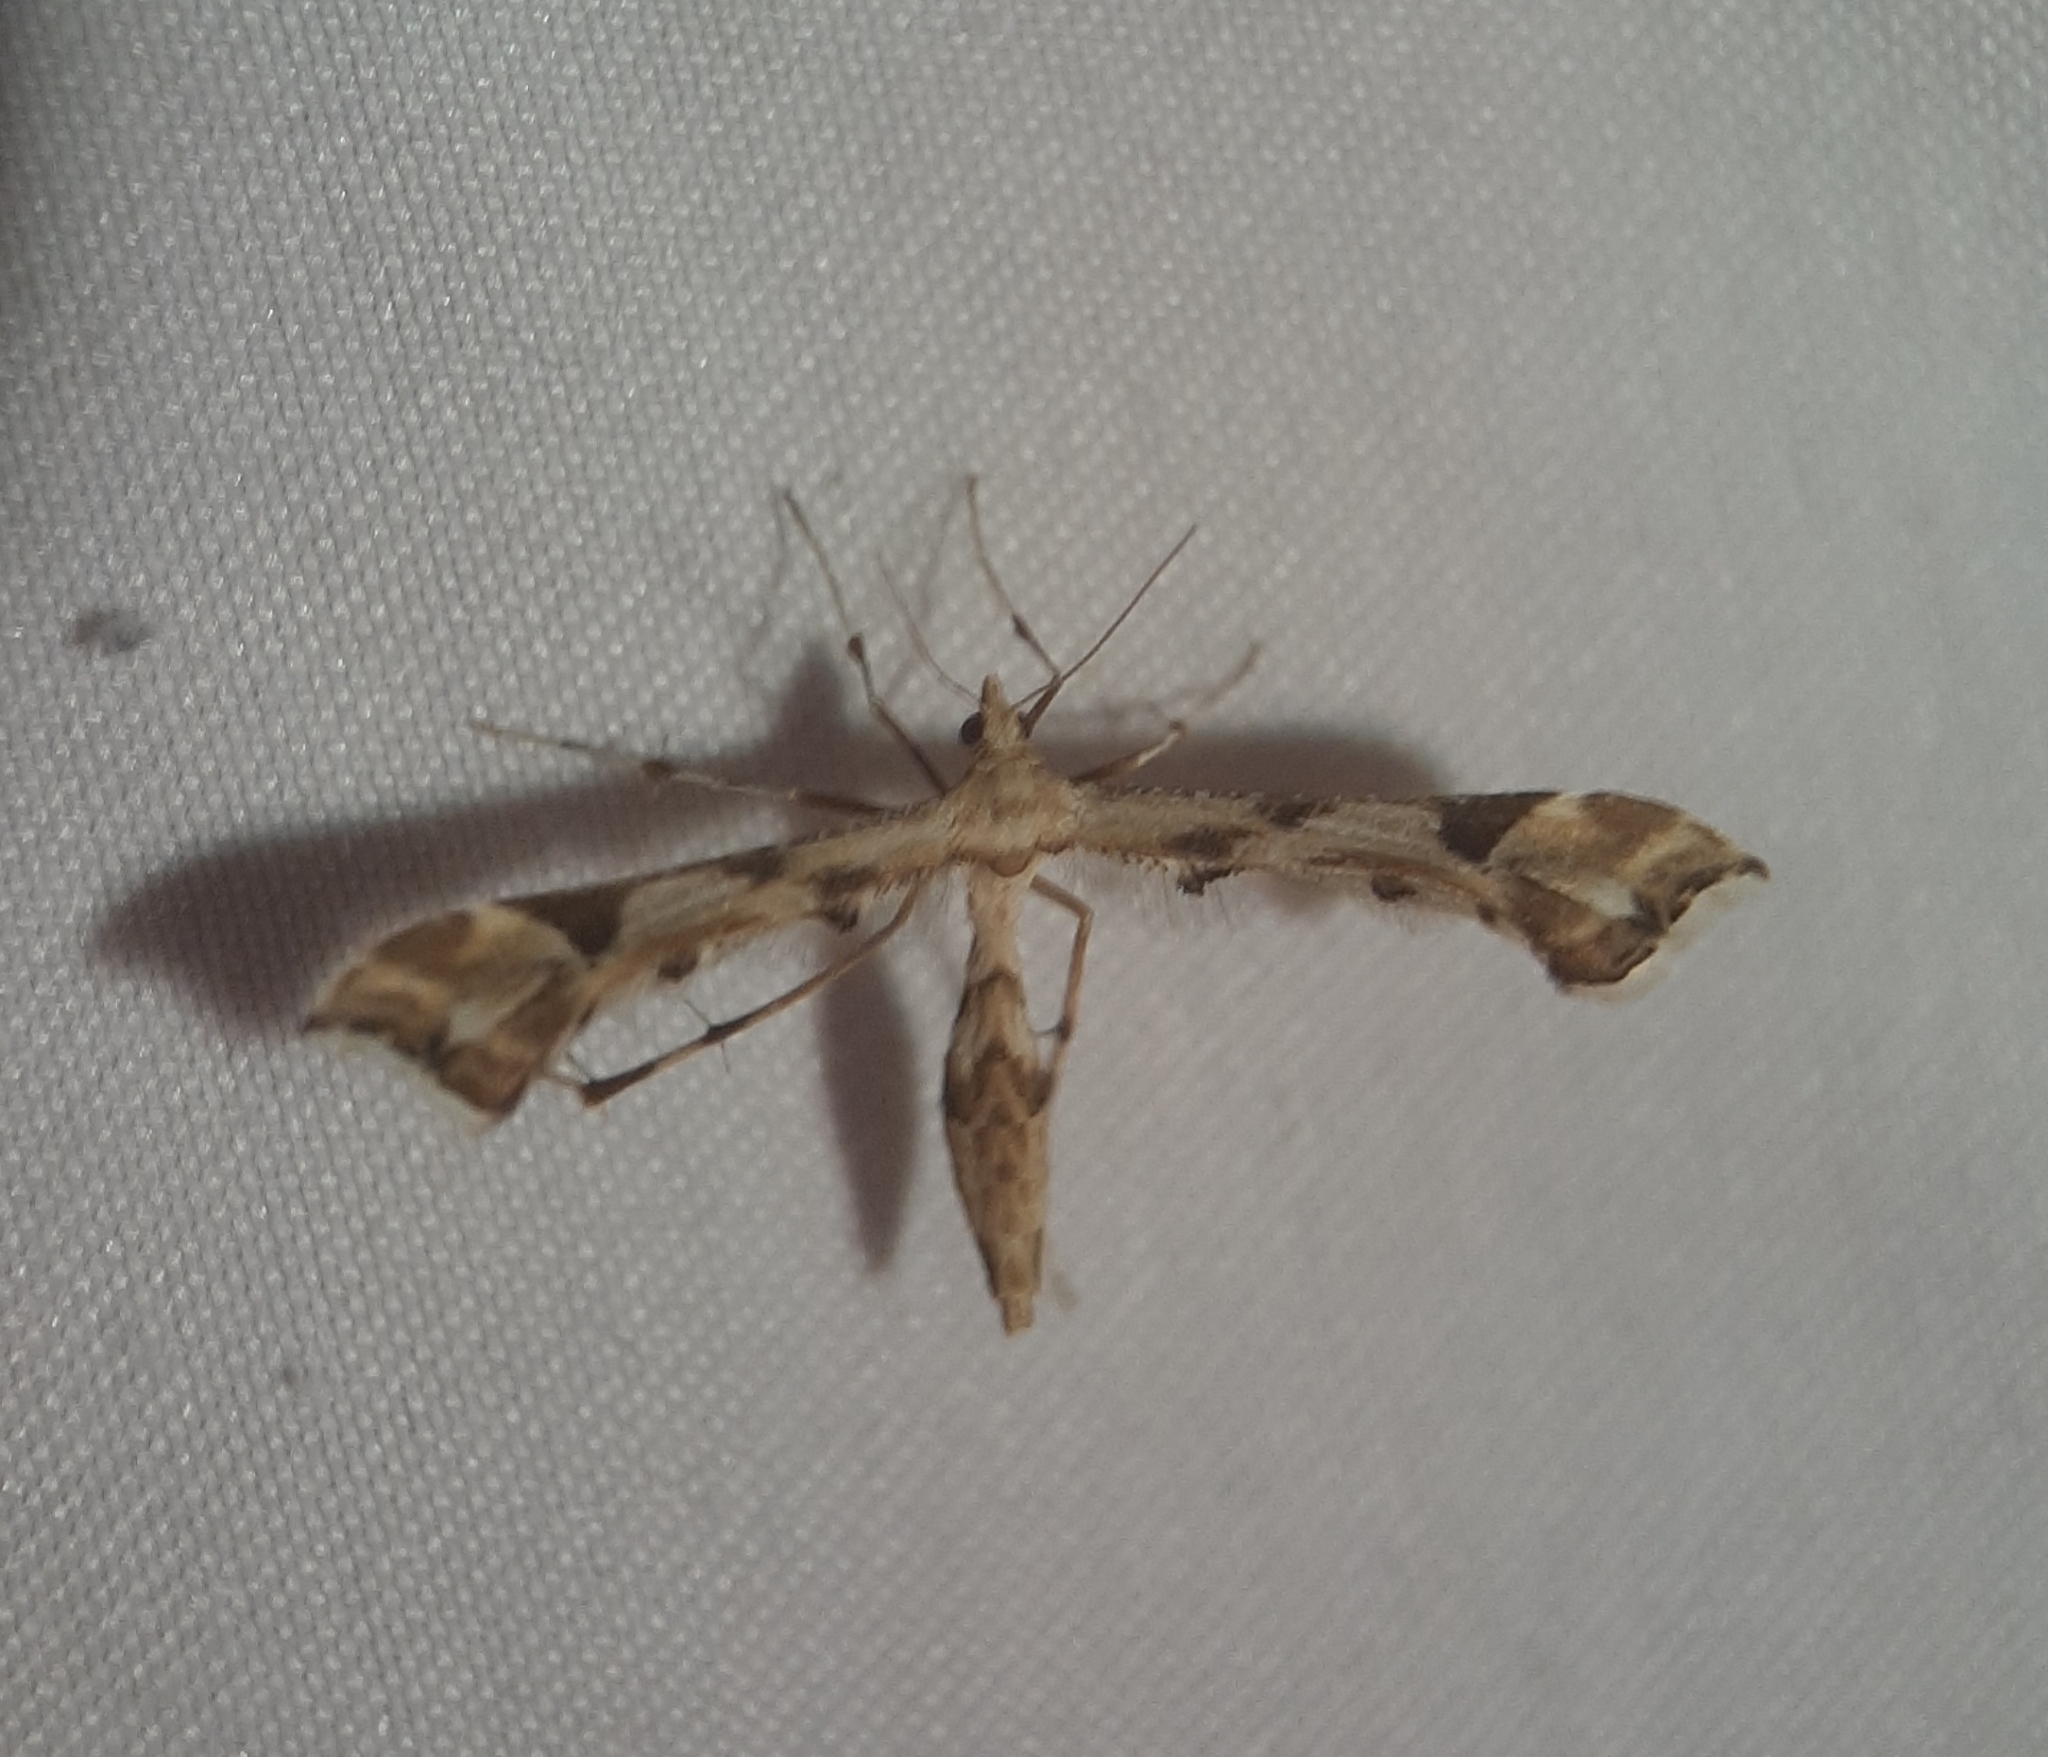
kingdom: Animalia
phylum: Arthropoda
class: Insecta
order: Lepidoptera
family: Pterophoridae
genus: Platyptilia
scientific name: Platyptilia carduidactylus
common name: Artichoke plume moth
